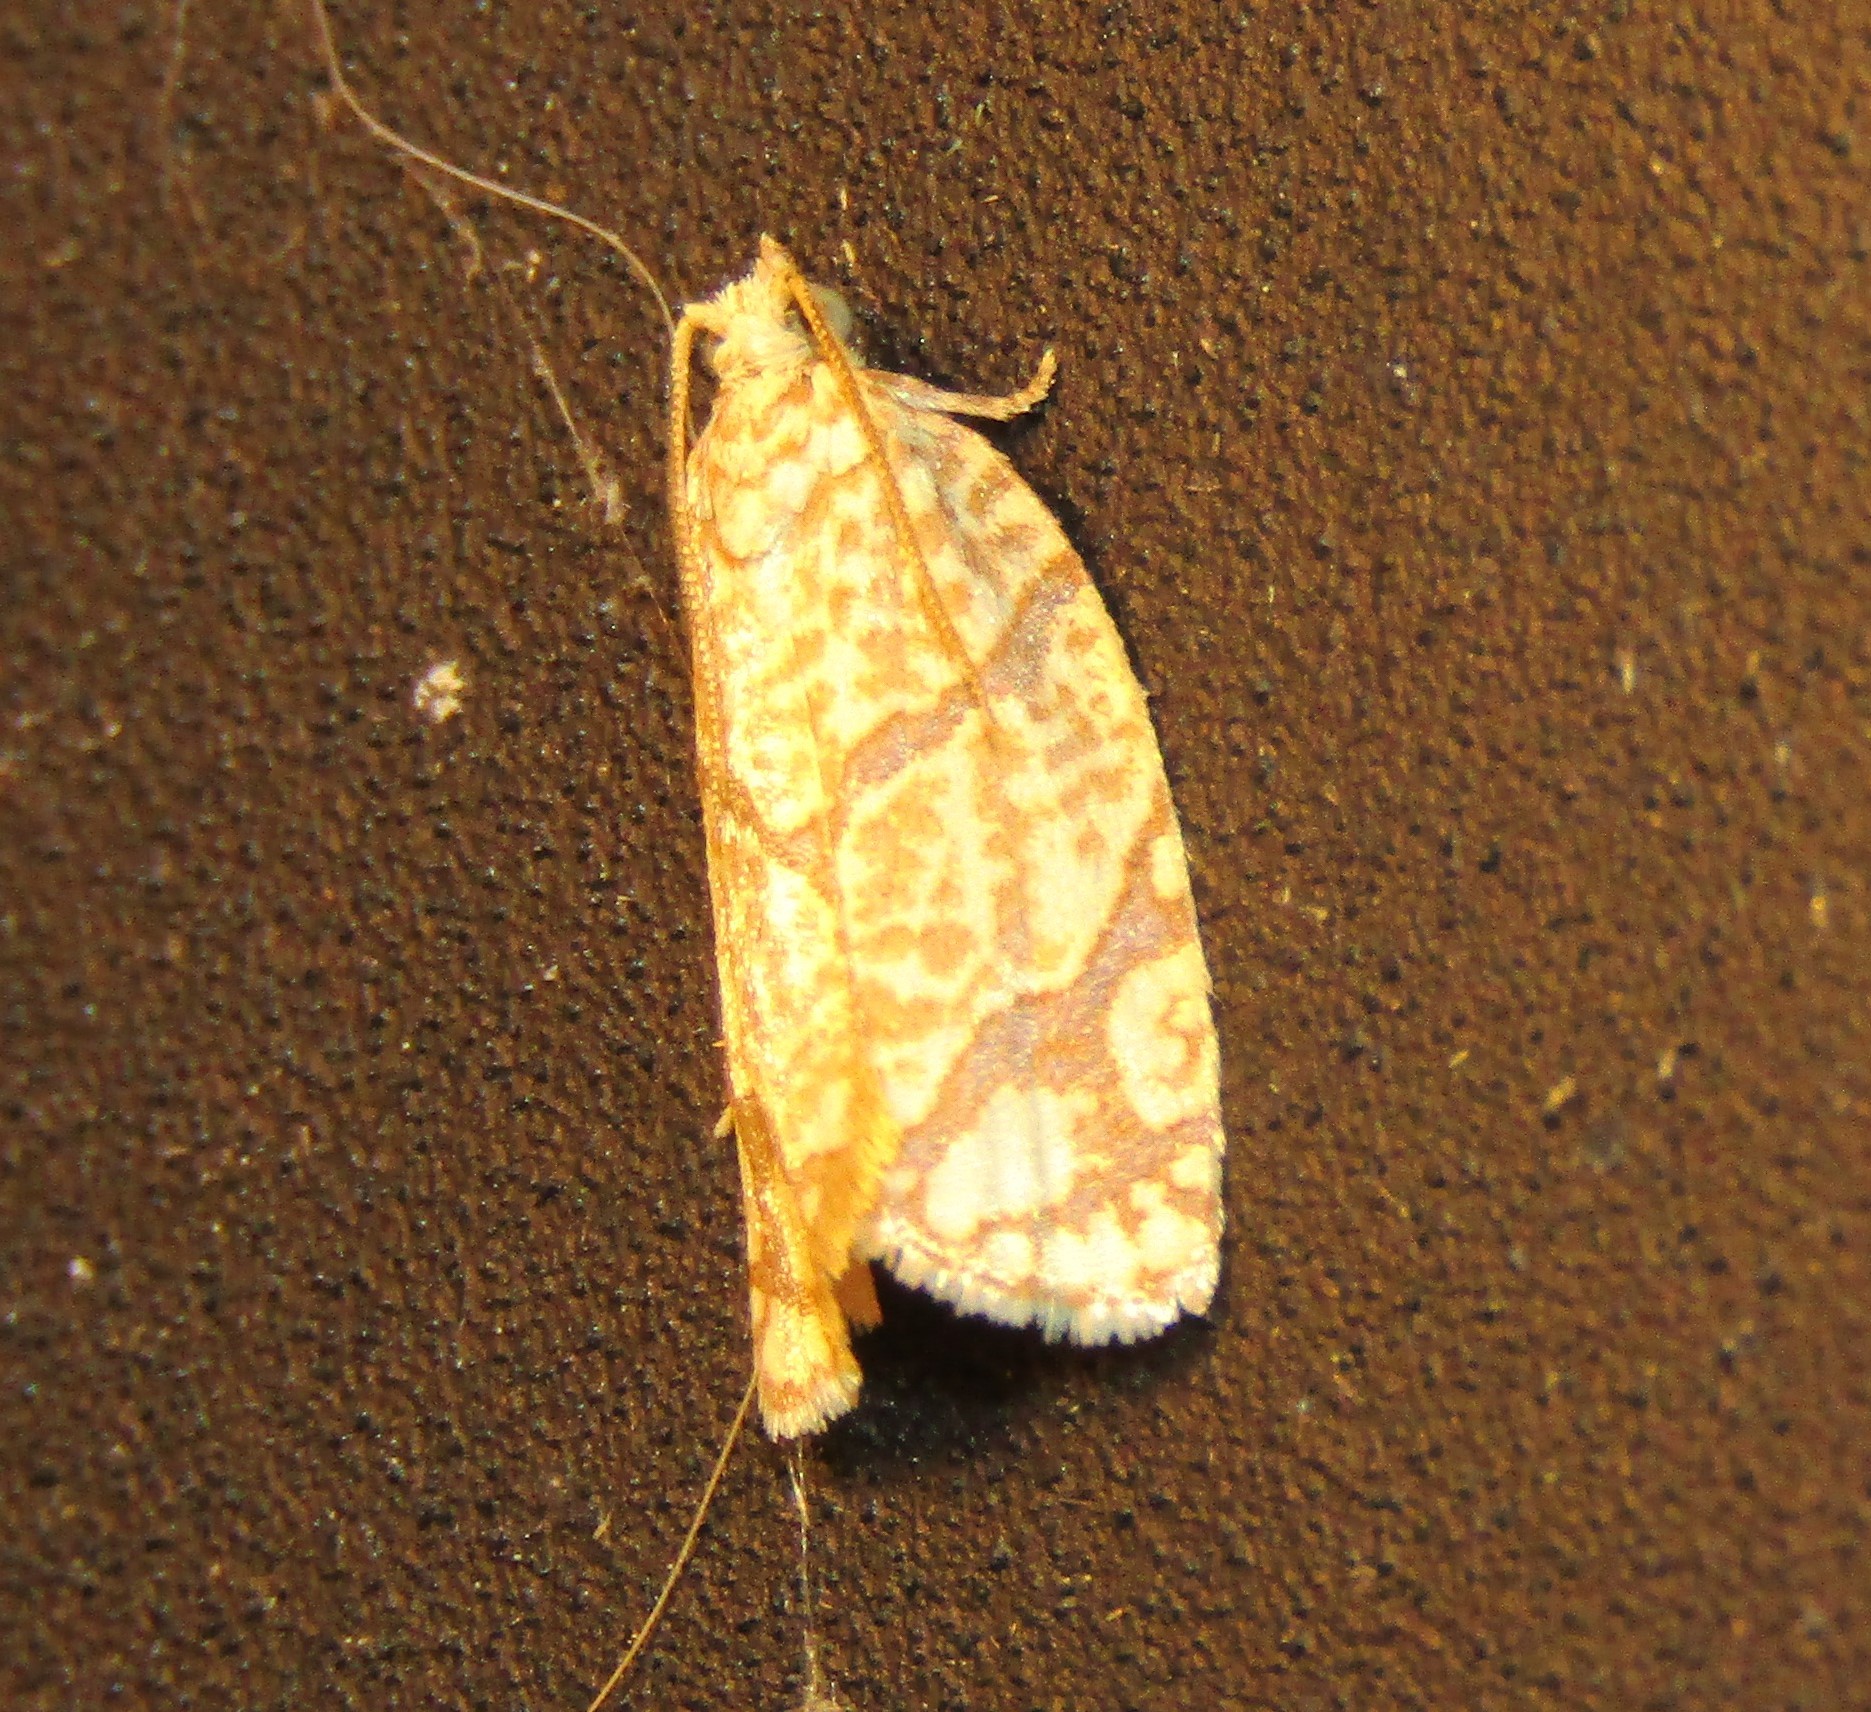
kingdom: Animalia
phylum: Arthropoda
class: Insecta
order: Lepidoptera
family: Tortricidae
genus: Argyrotaenia
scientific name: Argyrotaenia quercifoliana
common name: Yellow-winged oak leafroller moth
